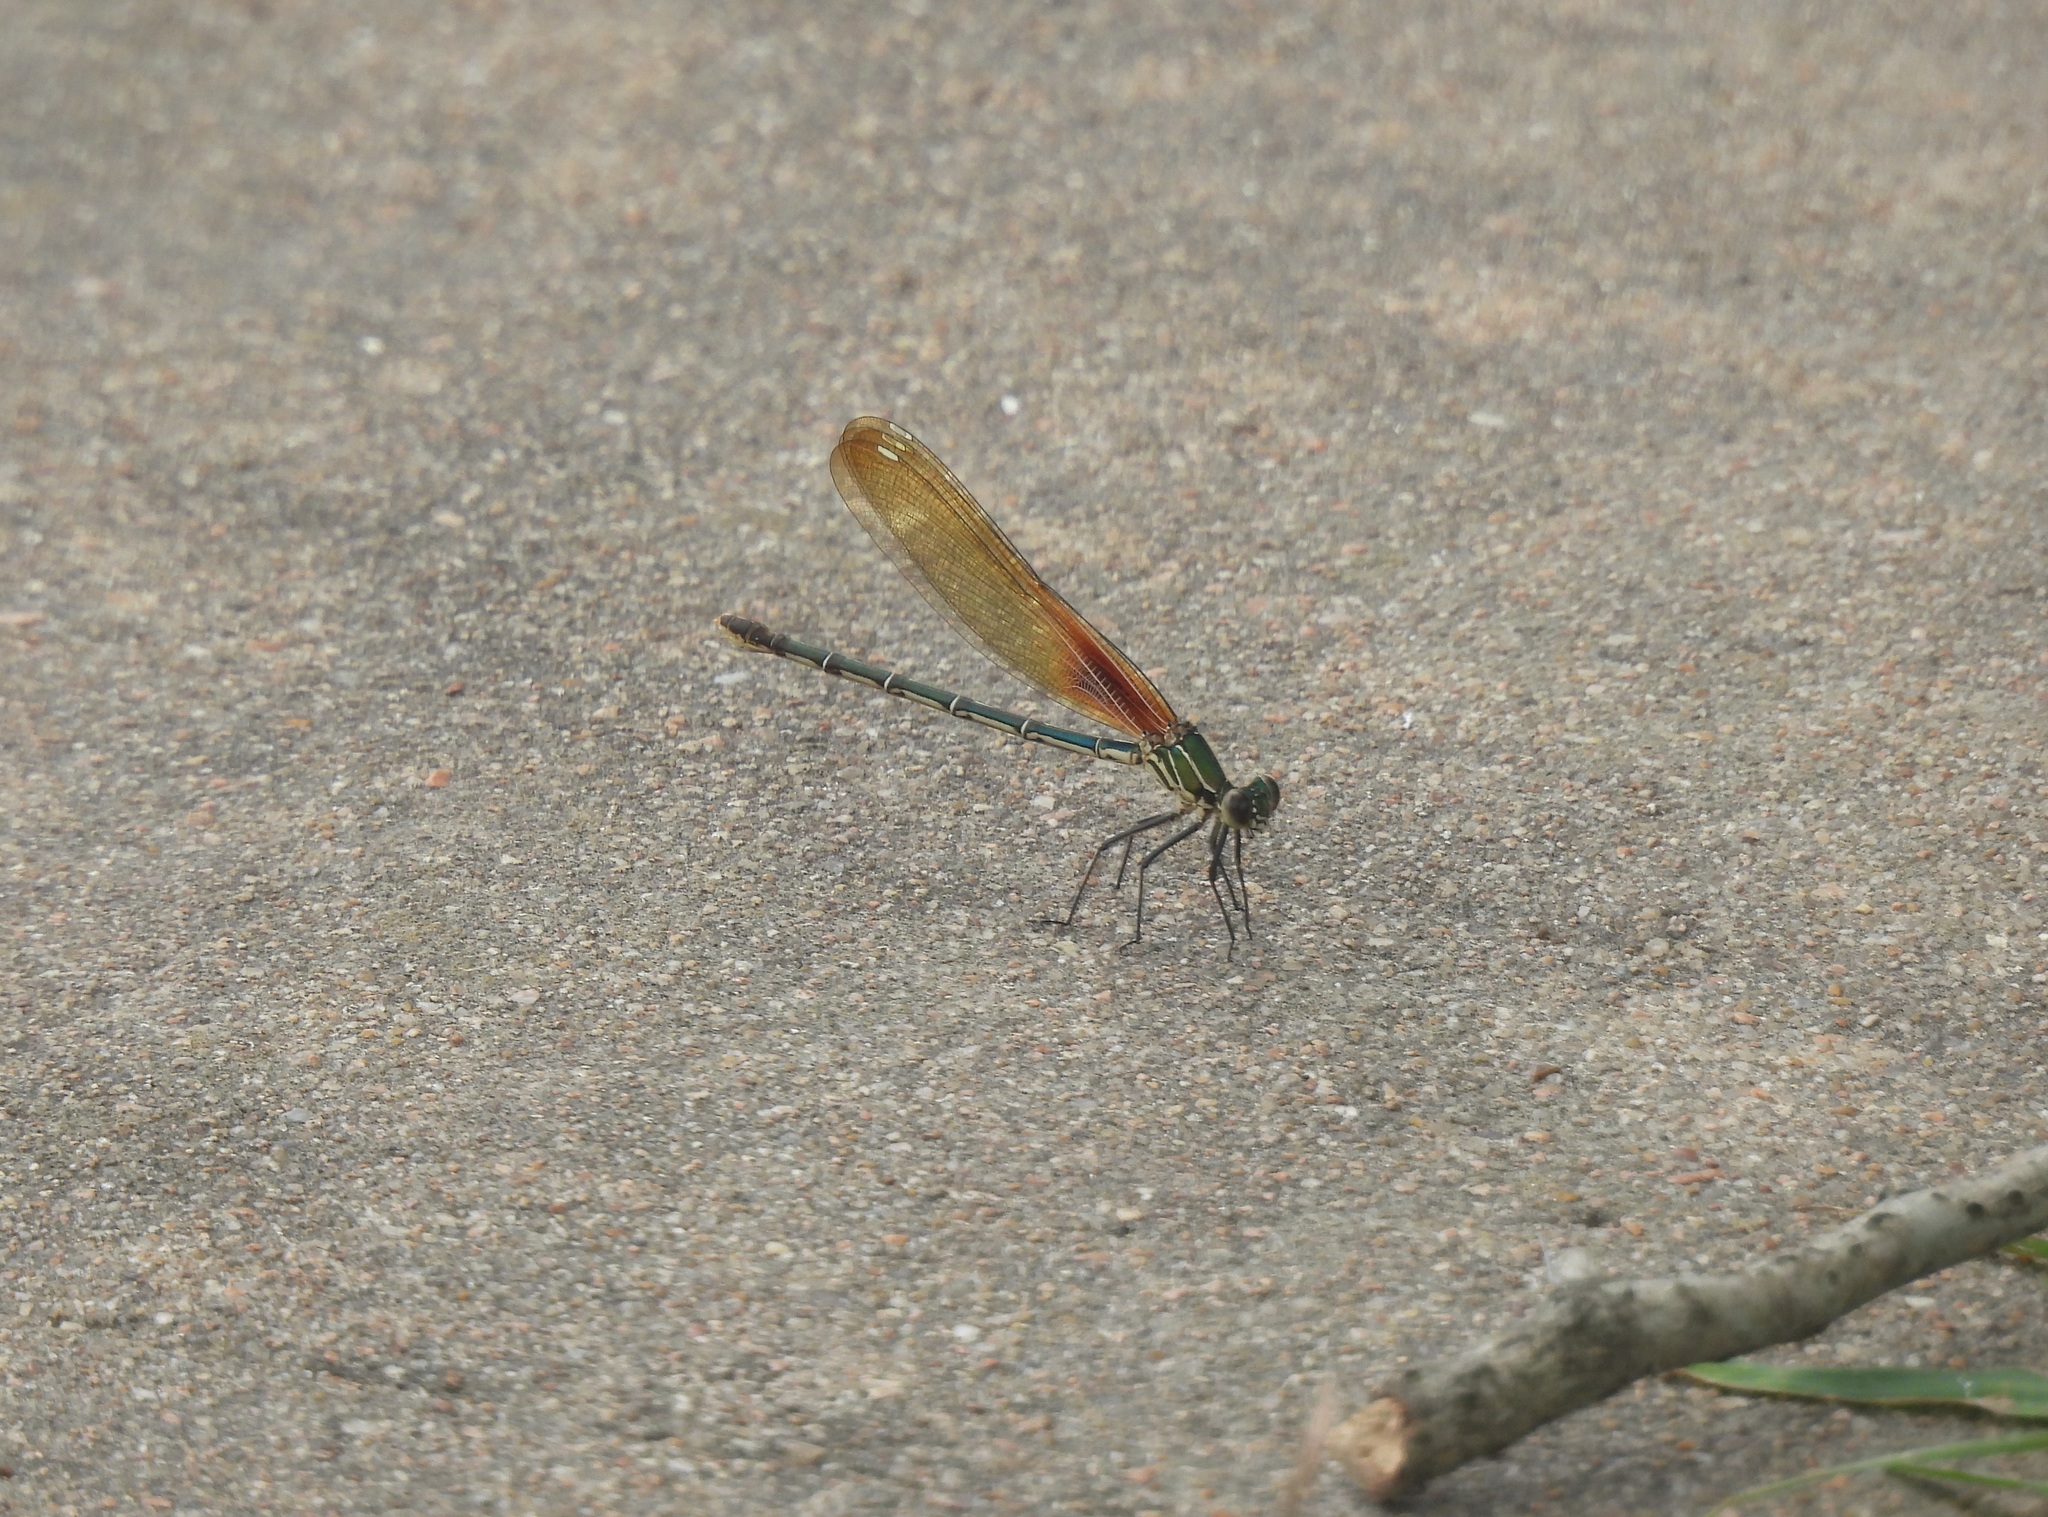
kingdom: Animalia
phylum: Arthropoda
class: Insecta
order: Odonata
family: Calopterygidae
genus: Hetaerina
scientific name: Hetaerina americana
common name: American rubyspot
